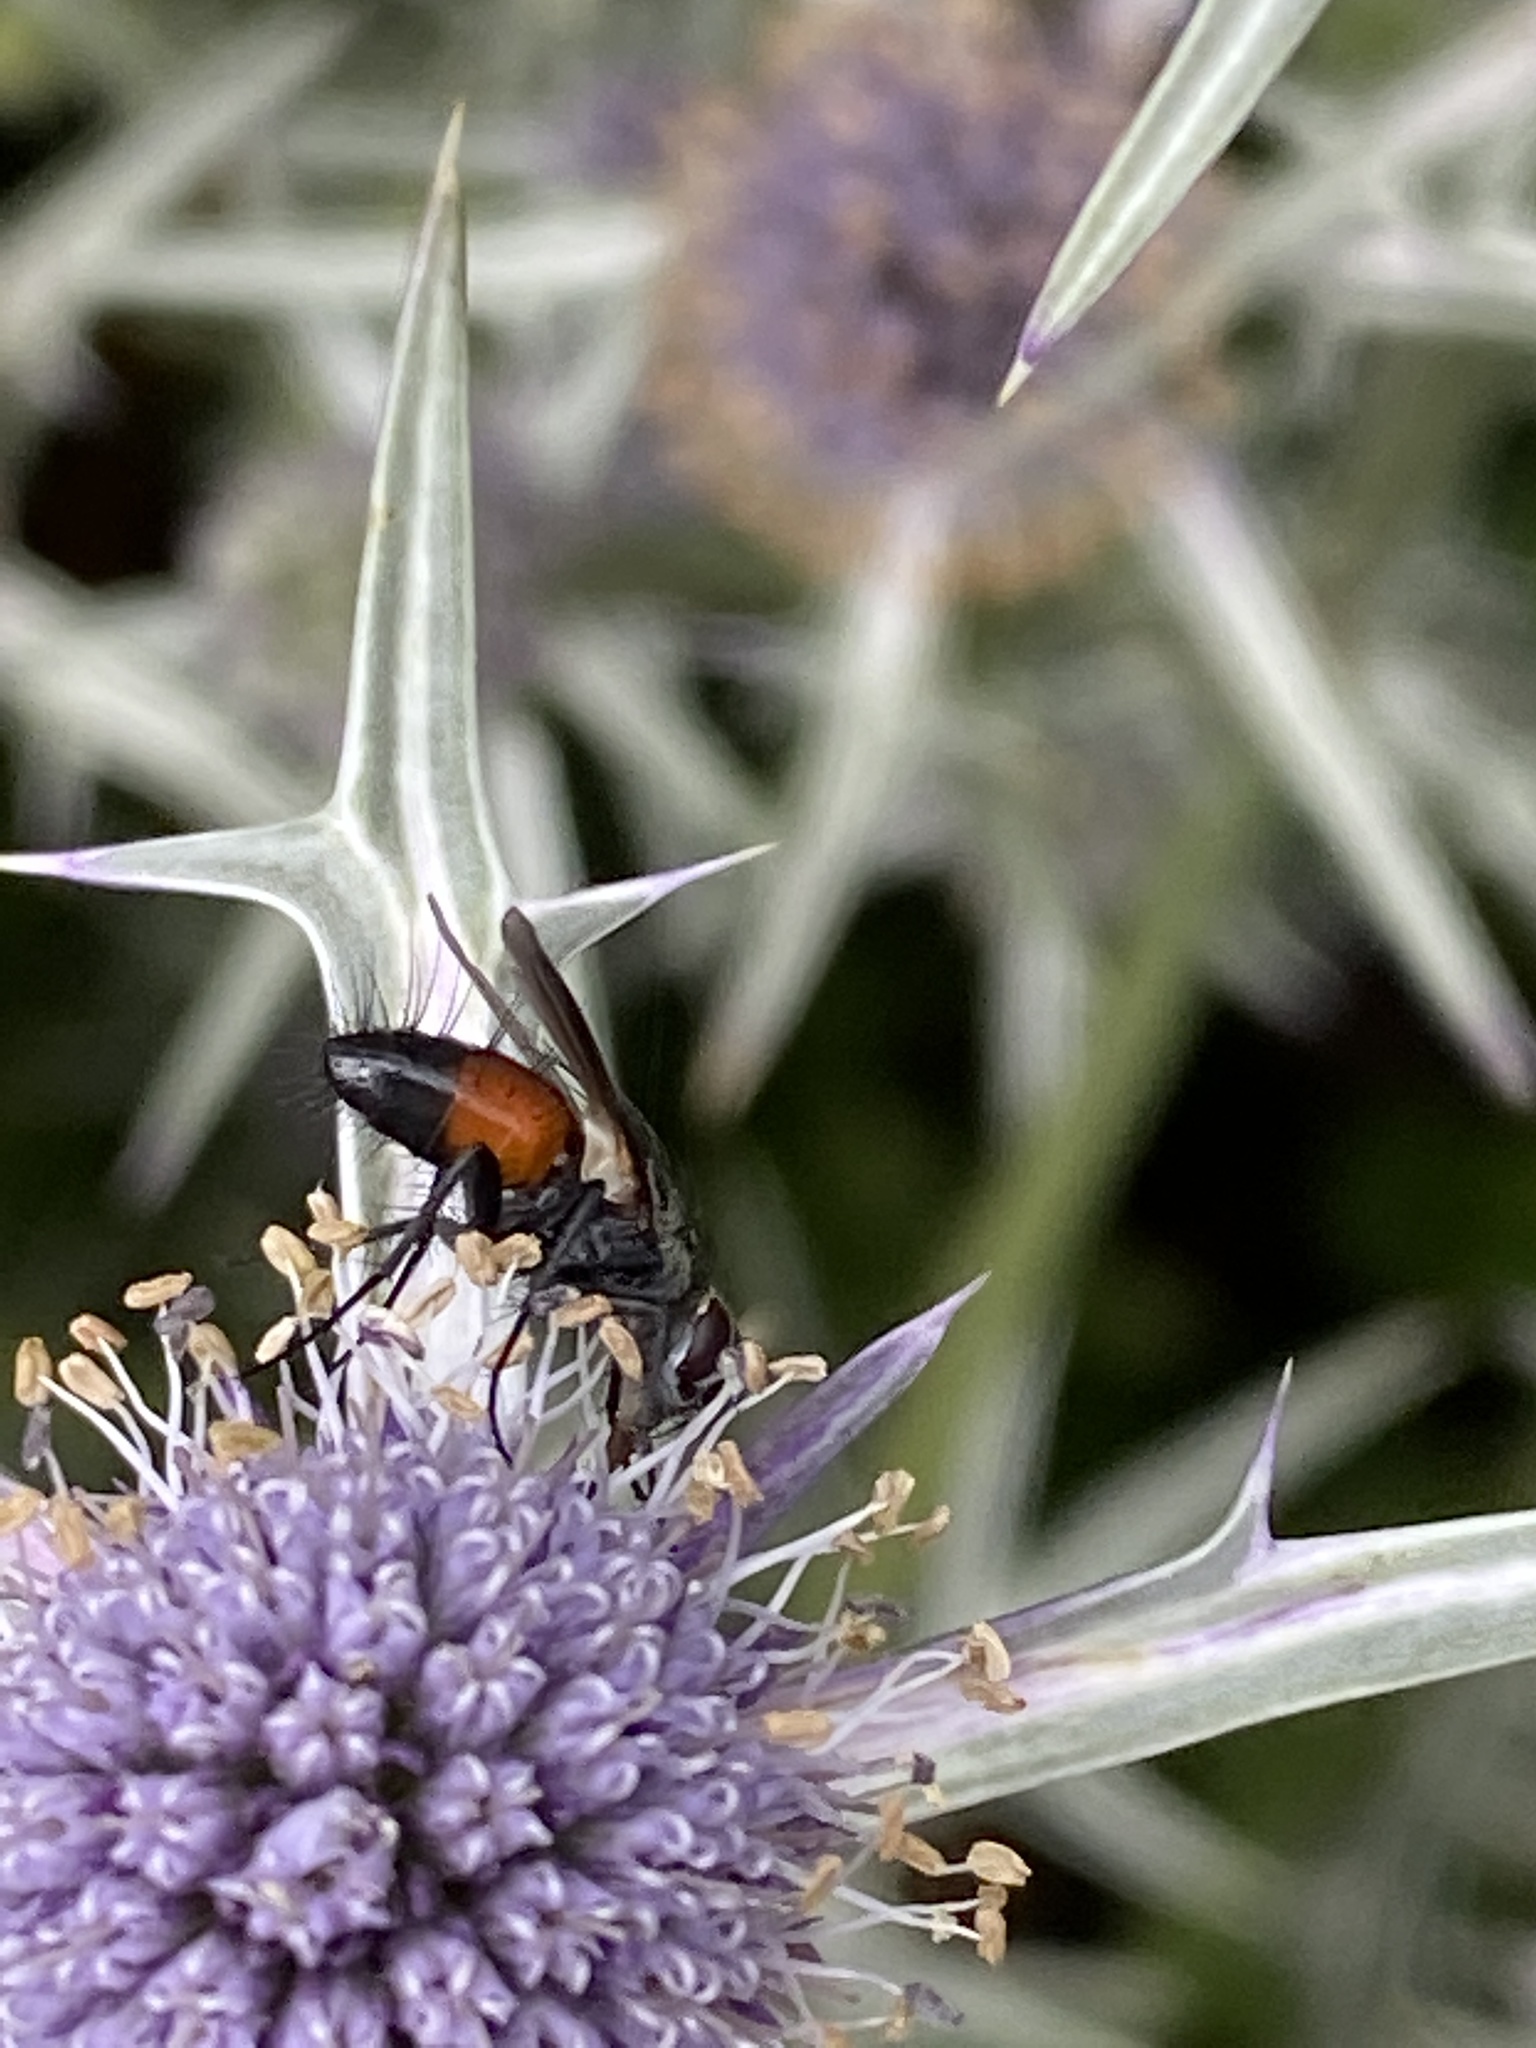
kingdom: Animalia
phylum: Arthropoda
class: Insecta
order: Diptera
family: Tachinidae
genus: Eriothrix
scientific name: Eriothrix rufomaculatus
